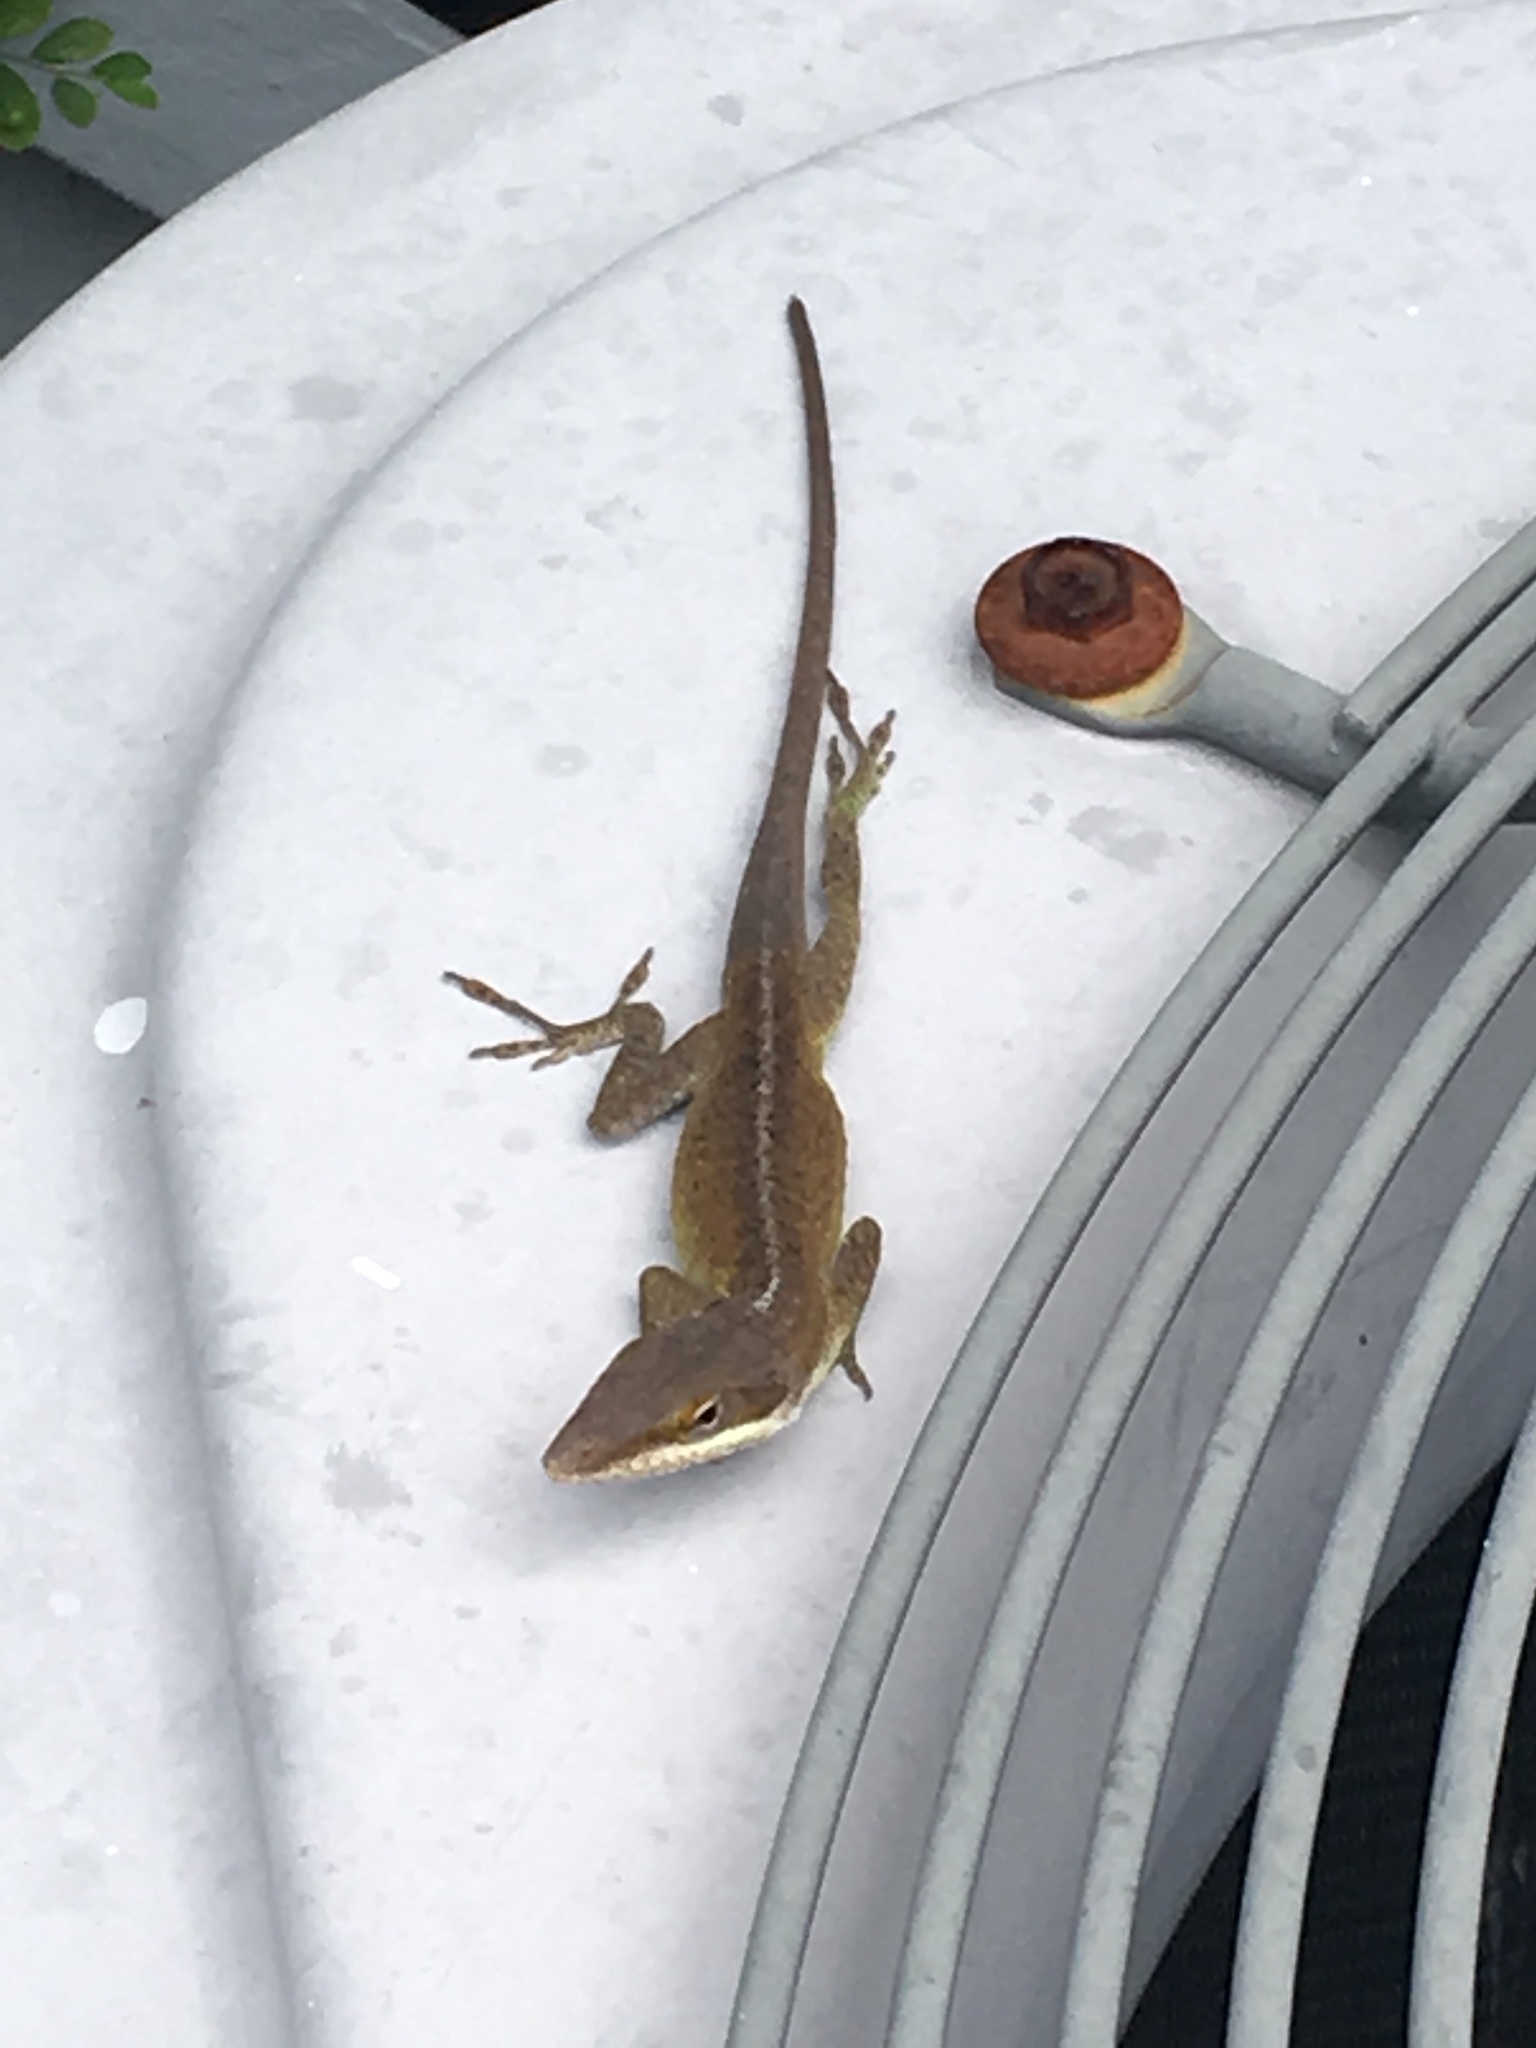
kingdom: Animalia
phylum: Chordata
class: Squamata
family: Dactyloidae
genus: Anolis
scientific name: Anolis carolinensis
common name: Green anole
